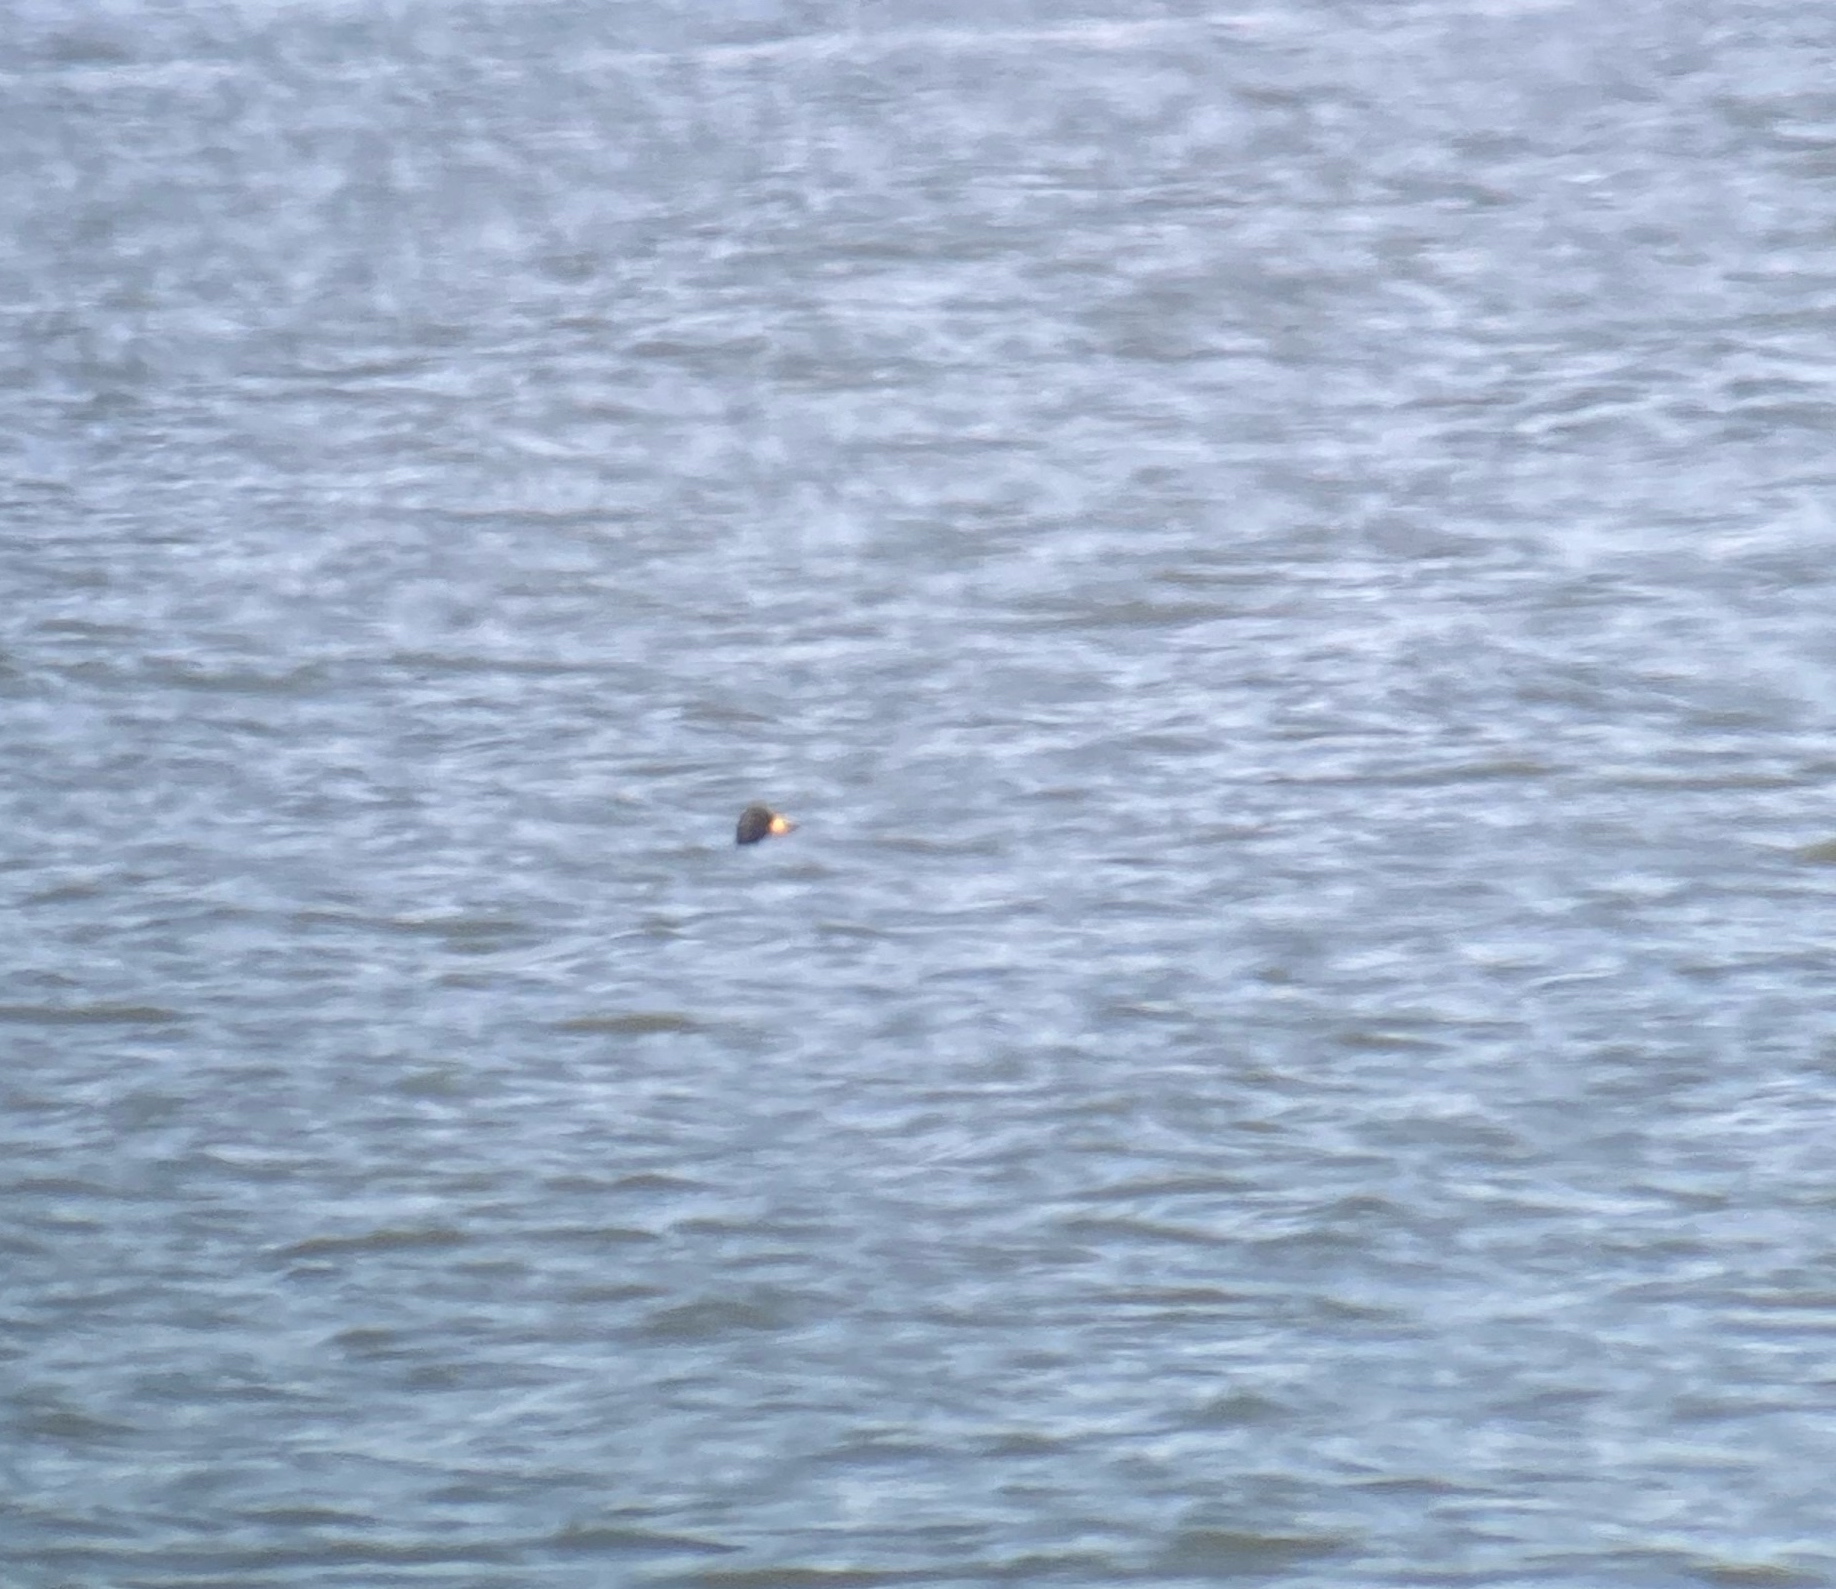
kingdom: Animalia
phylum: Chordata
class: Aves
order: Anseriformes
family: Anatidae
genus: Melanitta
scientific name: Melanitta americana
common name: Black scoter
